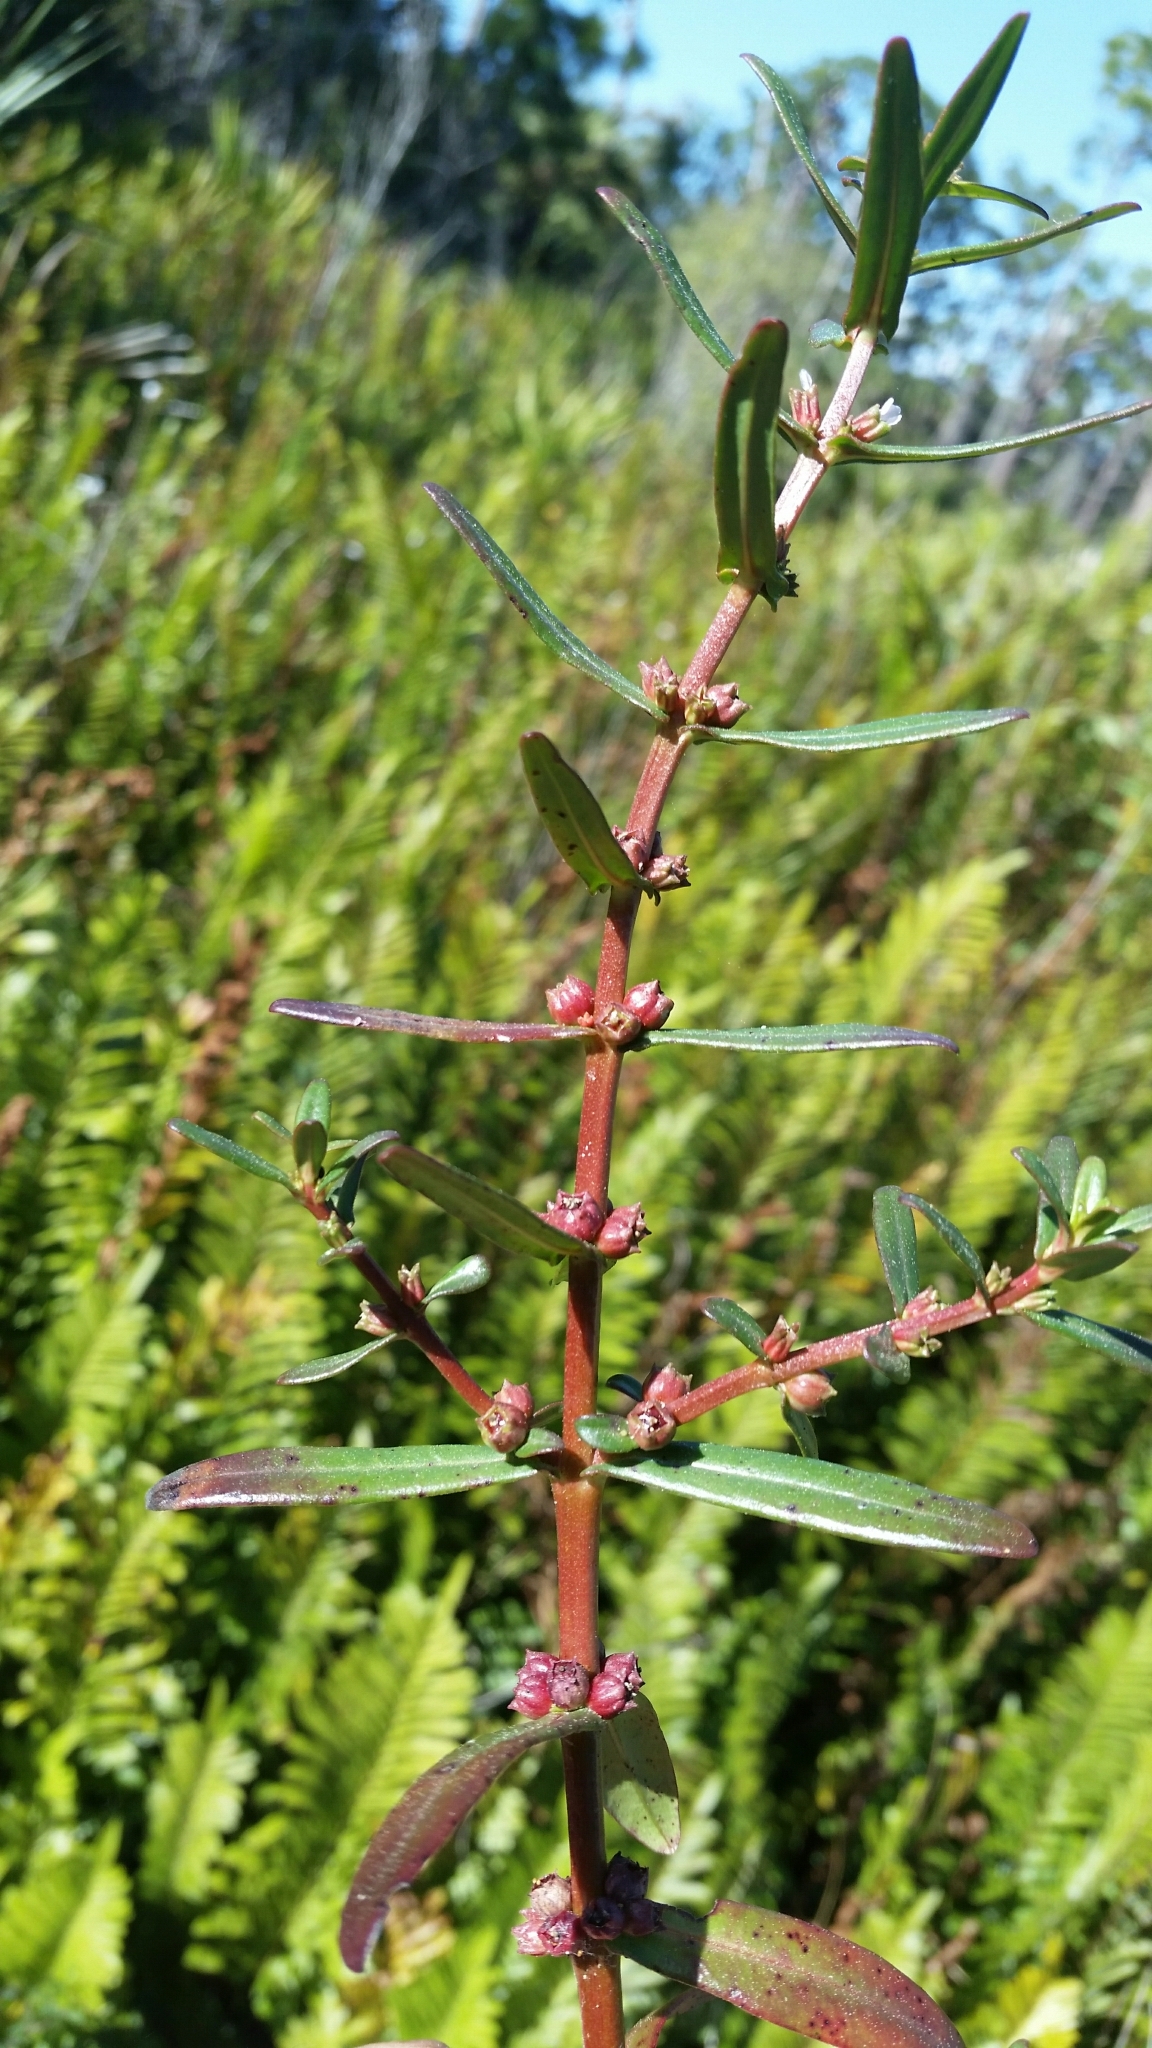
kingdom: Plantae
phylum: Tracheophyta
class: Magnoliopsida
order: Myrtales
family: Lythraceae
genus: Ammannia
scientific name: Ammannia latifolia
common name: Toothcup
